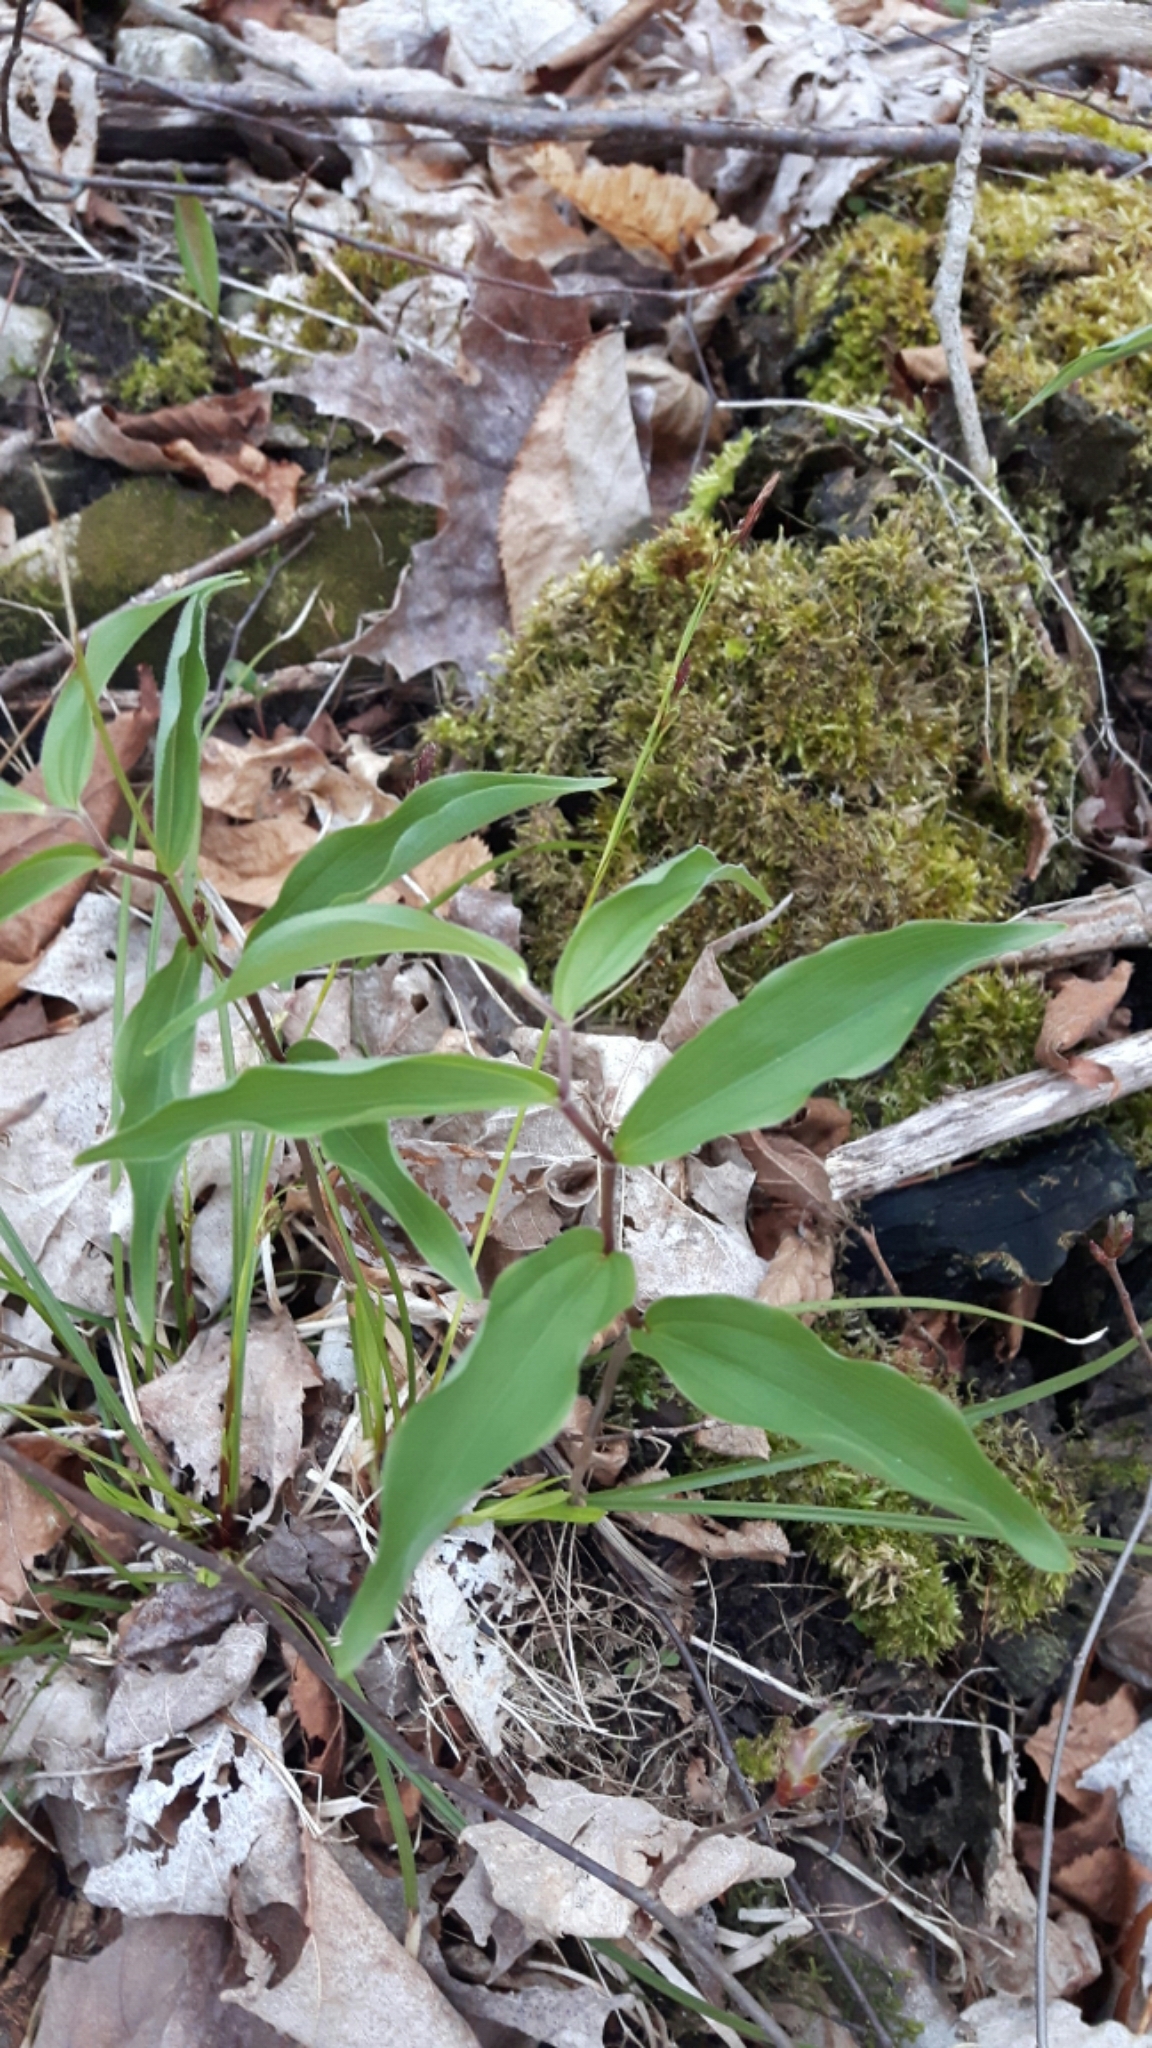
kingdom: Plantae
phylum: Tracheophyta
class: Liliopsida
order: Asparagales
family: Asparagaceae
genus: Maianthemum
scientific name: Maianthemum racemosum
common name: False spikenard
